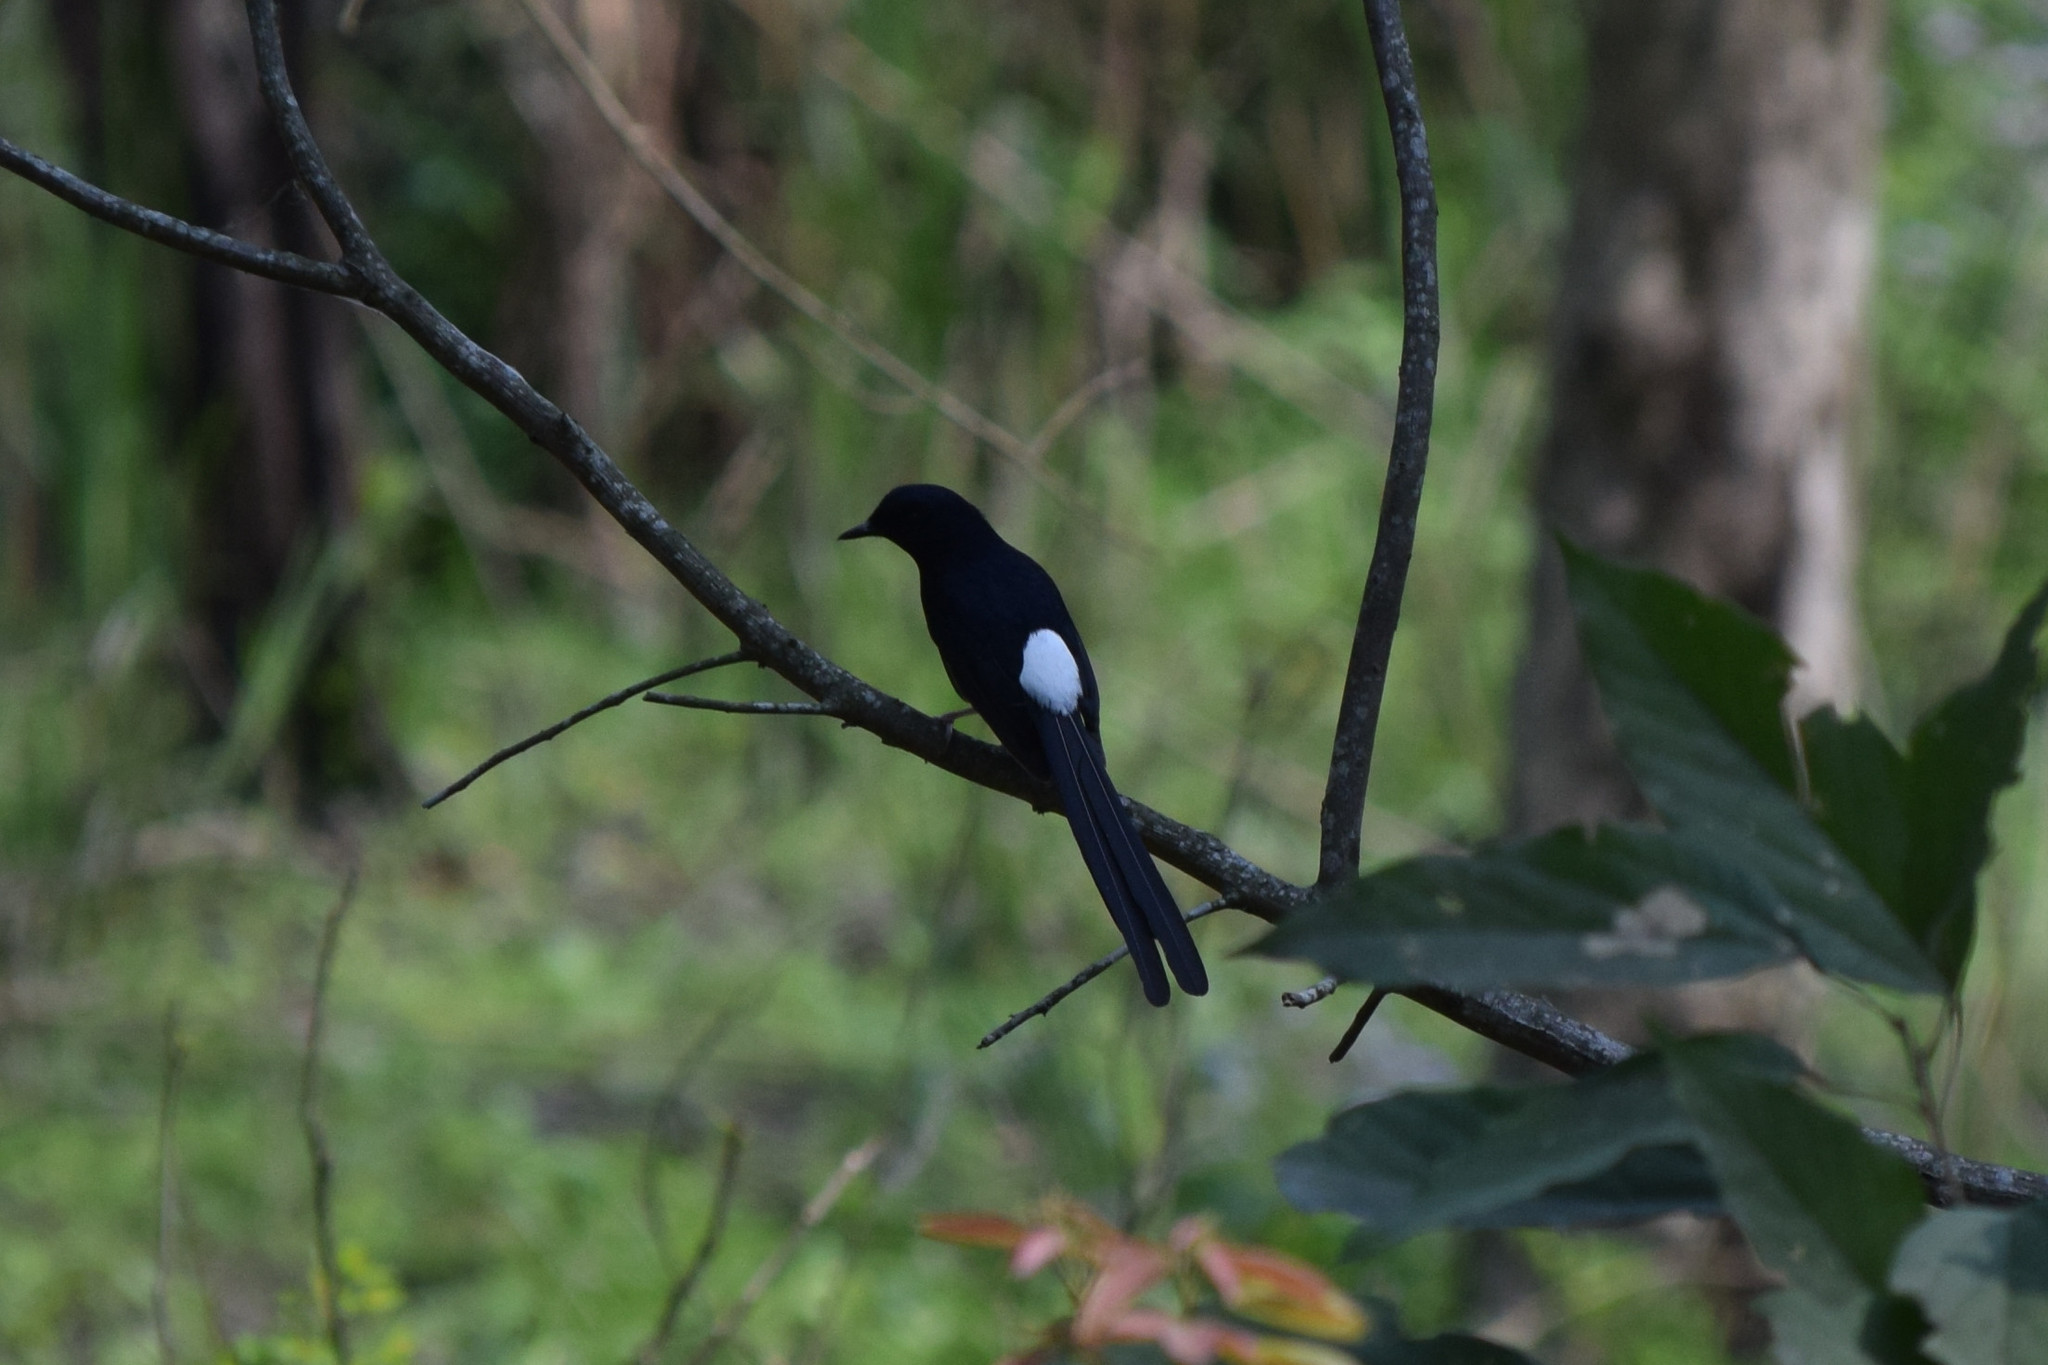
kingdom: Animalia
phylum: Chordata
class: Aves
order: Passeriformes
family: Muscicapidae
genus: Copsychus
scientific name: Copsychus malabaricus
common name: White-rumped shama
